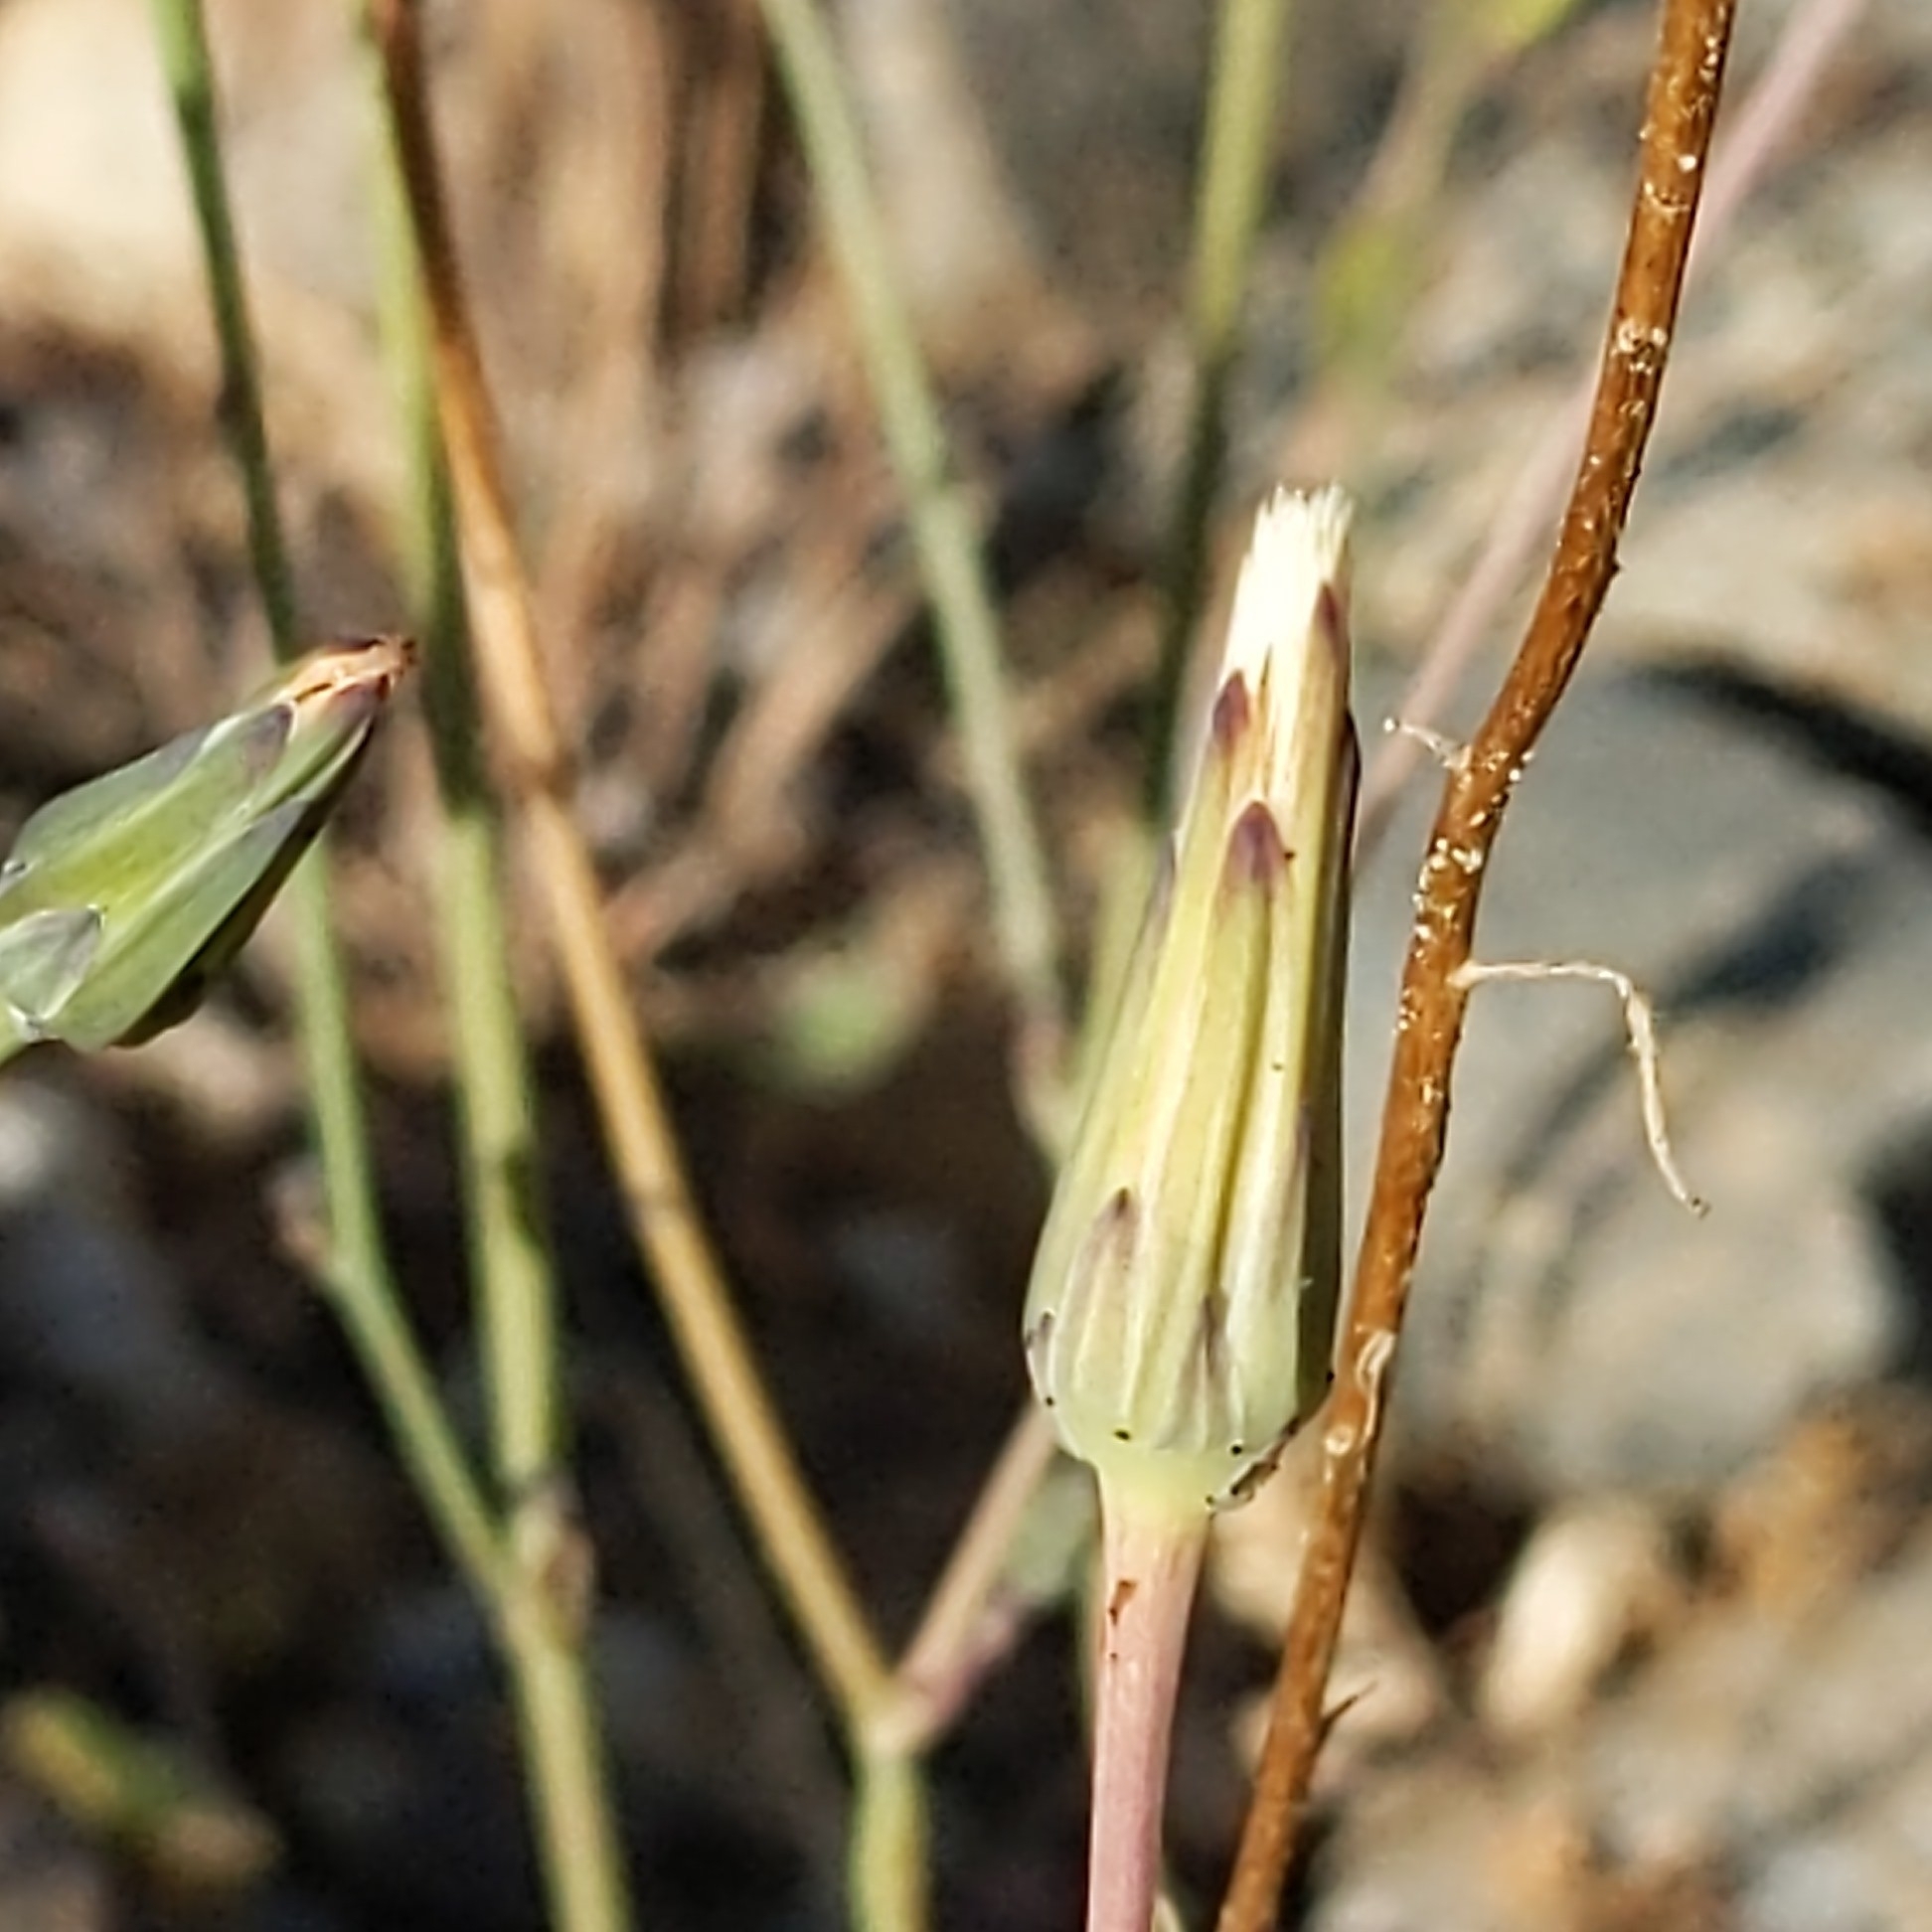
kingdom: Plantae
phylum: Tracheophyta
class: Magnoliopsida
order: Asterales
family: Asteraceae
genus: Hypochaeris
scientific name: Hypochaeris glabra
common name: Smooth catsear
